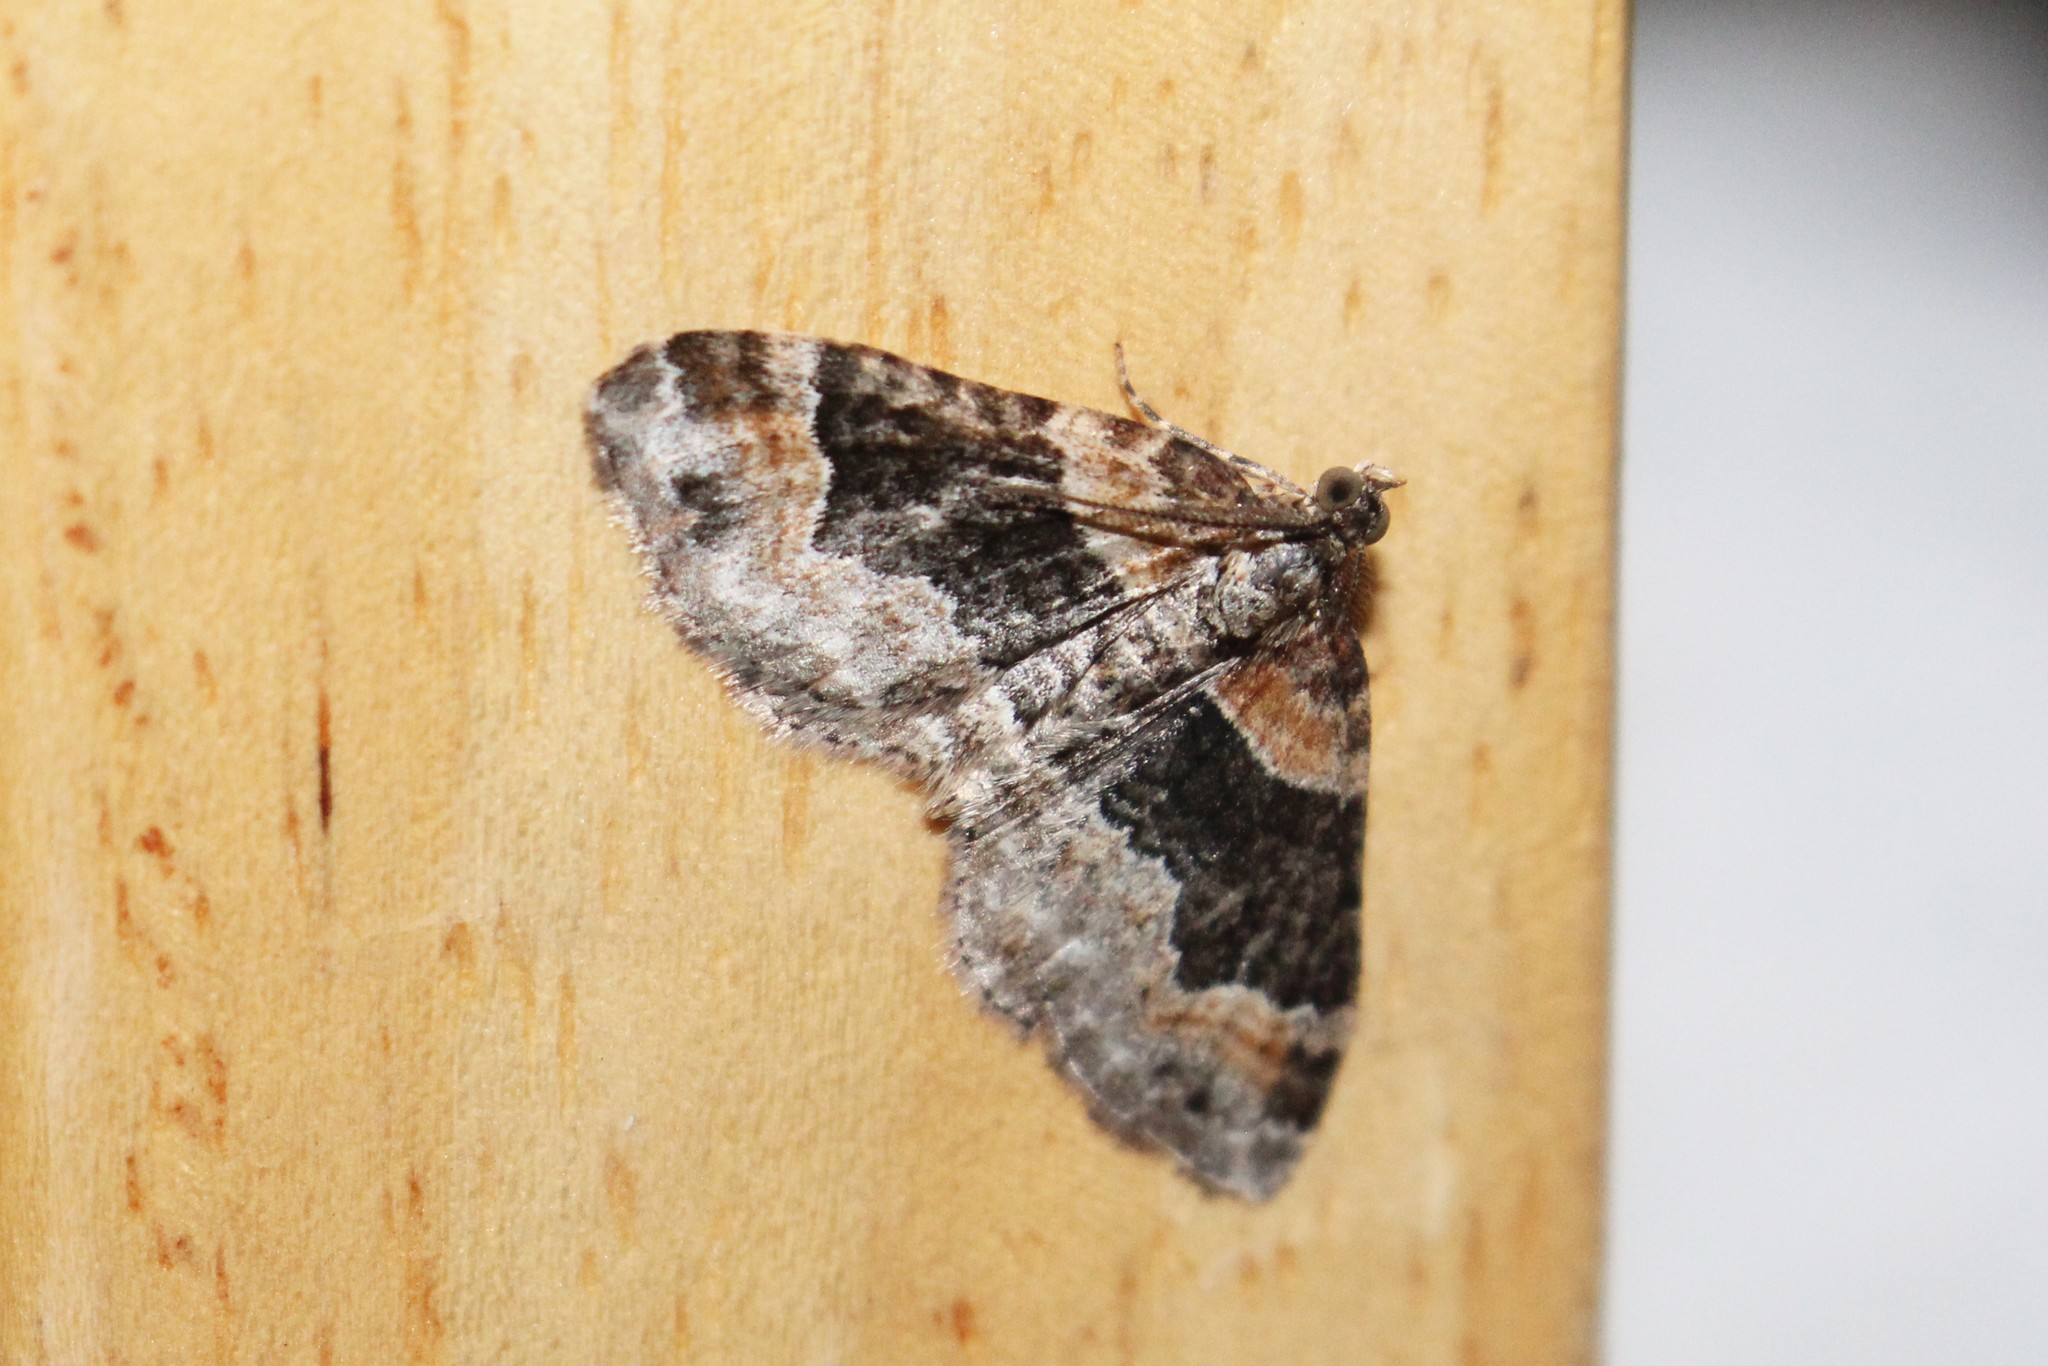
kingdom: Animalia
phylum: Arthropoda
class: Insecta
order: Lepidoptera
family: Geometridae
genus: Xanthorhoe
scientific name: Xanthorhoe ferrugata
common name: Dark-barred twin-spot carpet
